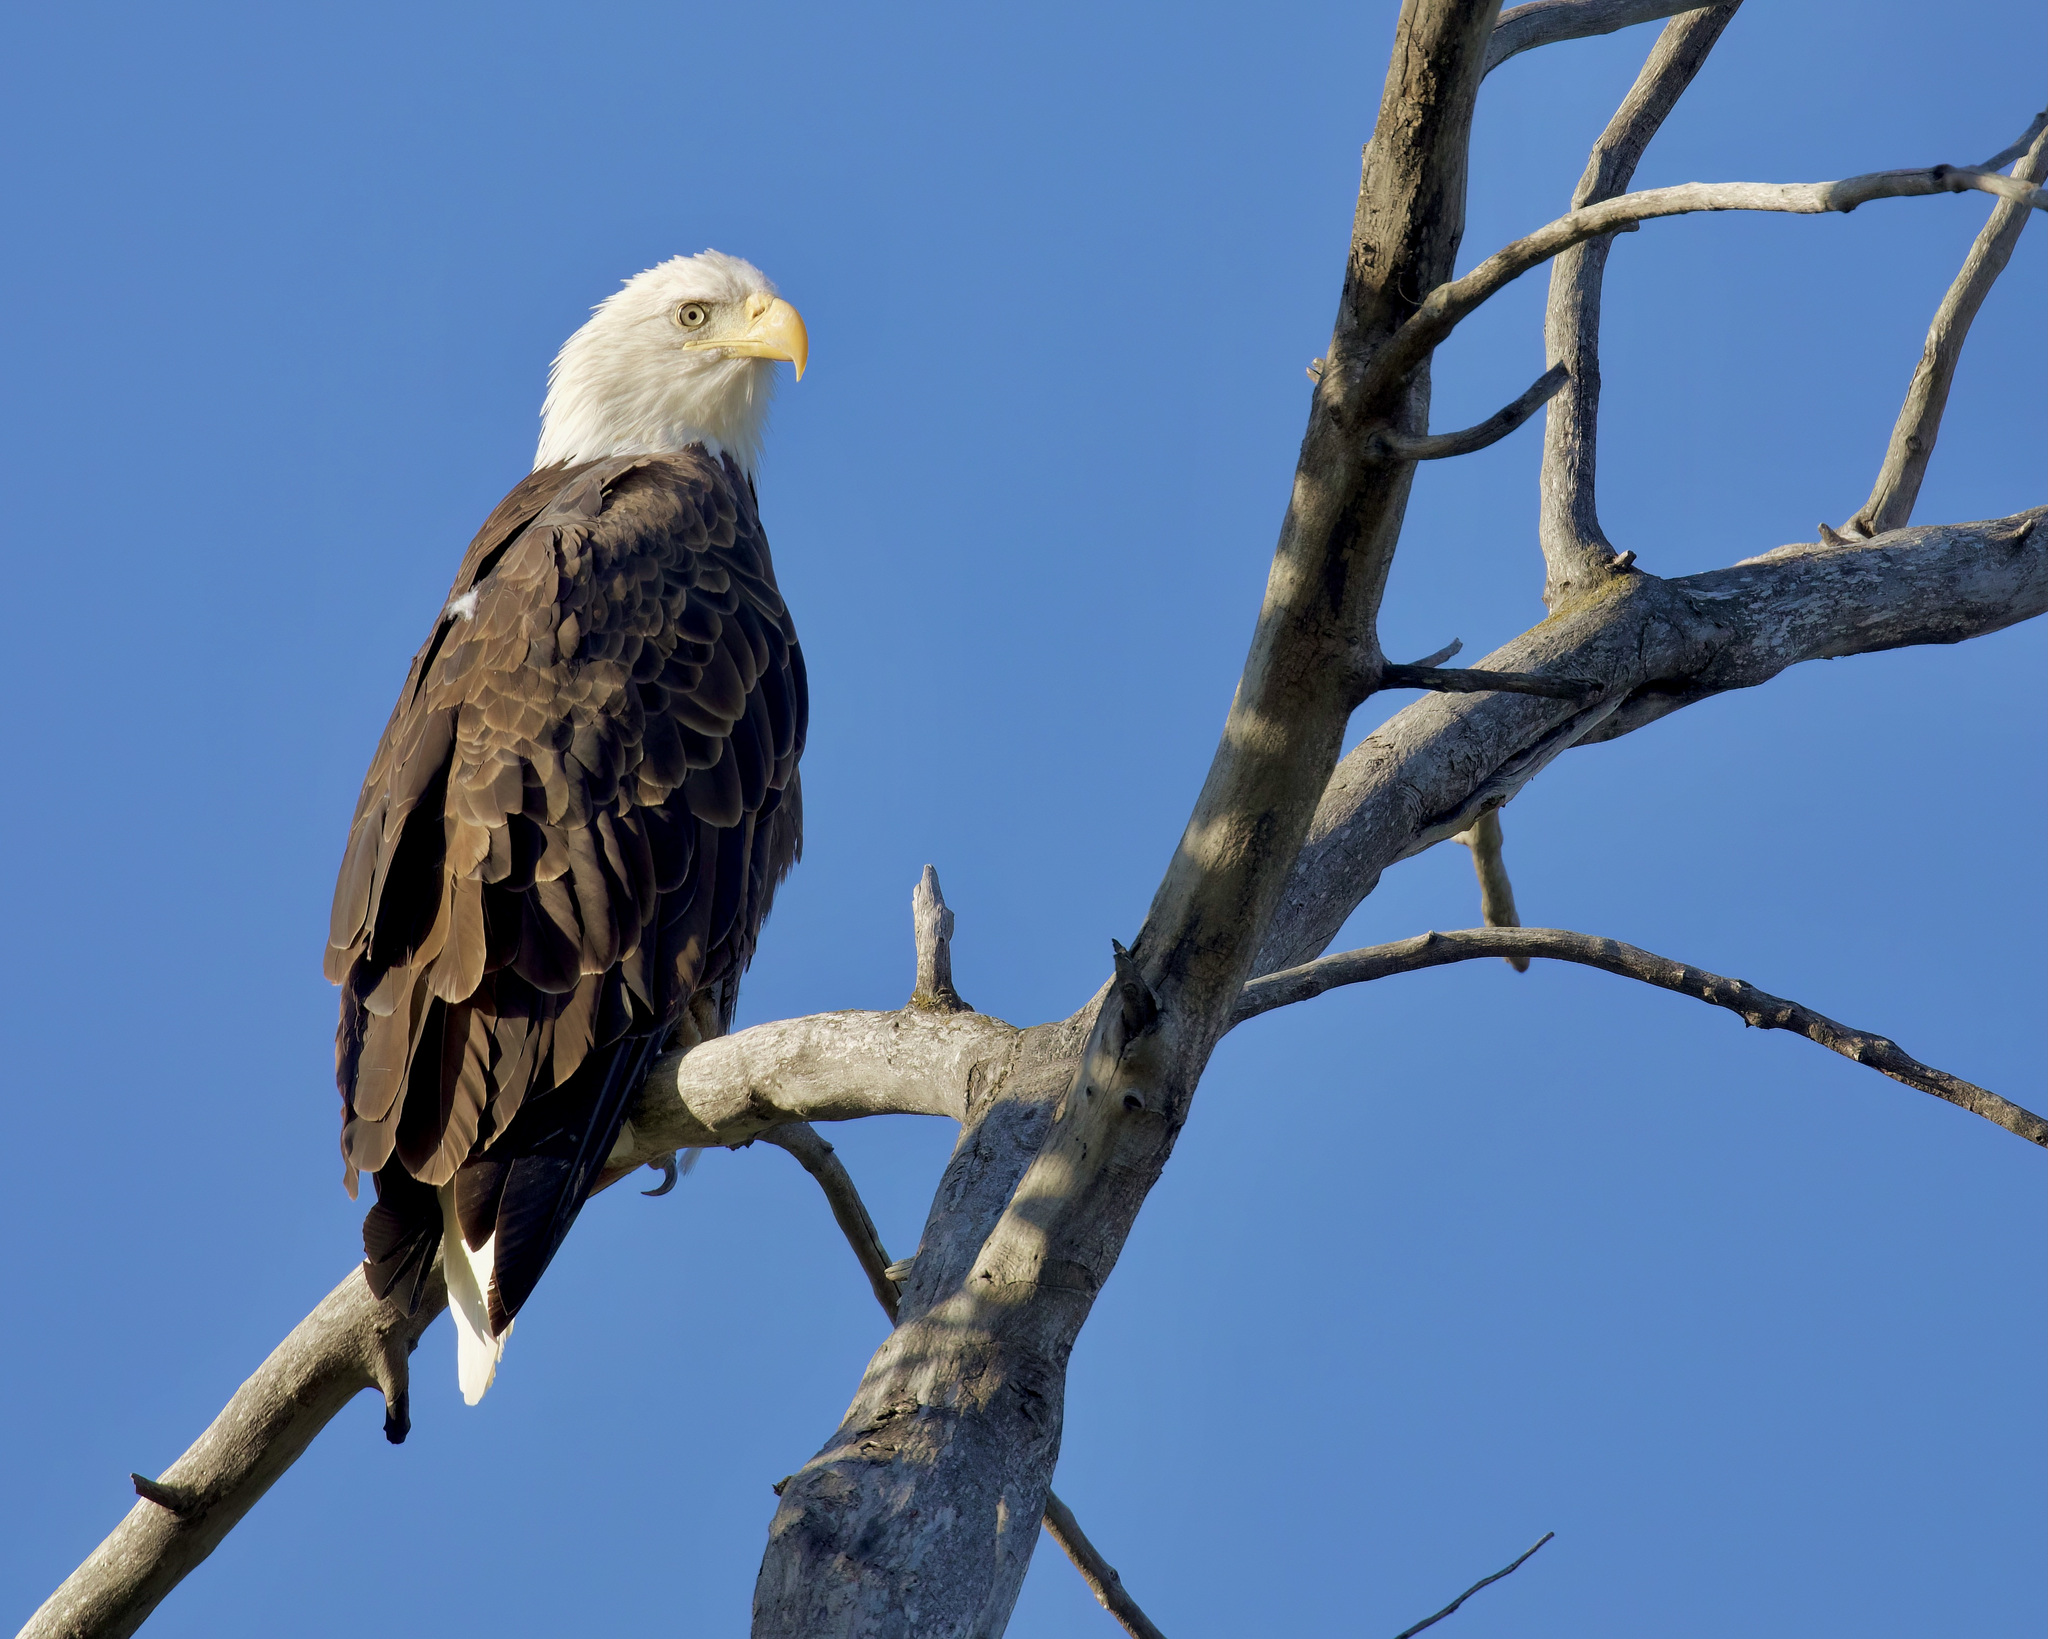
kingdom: Animalia
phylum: Chordata
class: Aves
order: Accipitriformes
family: Accipitridae
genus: Haliaeetus
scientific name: Haliaeetus leucocephalus
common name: Bald eagle
